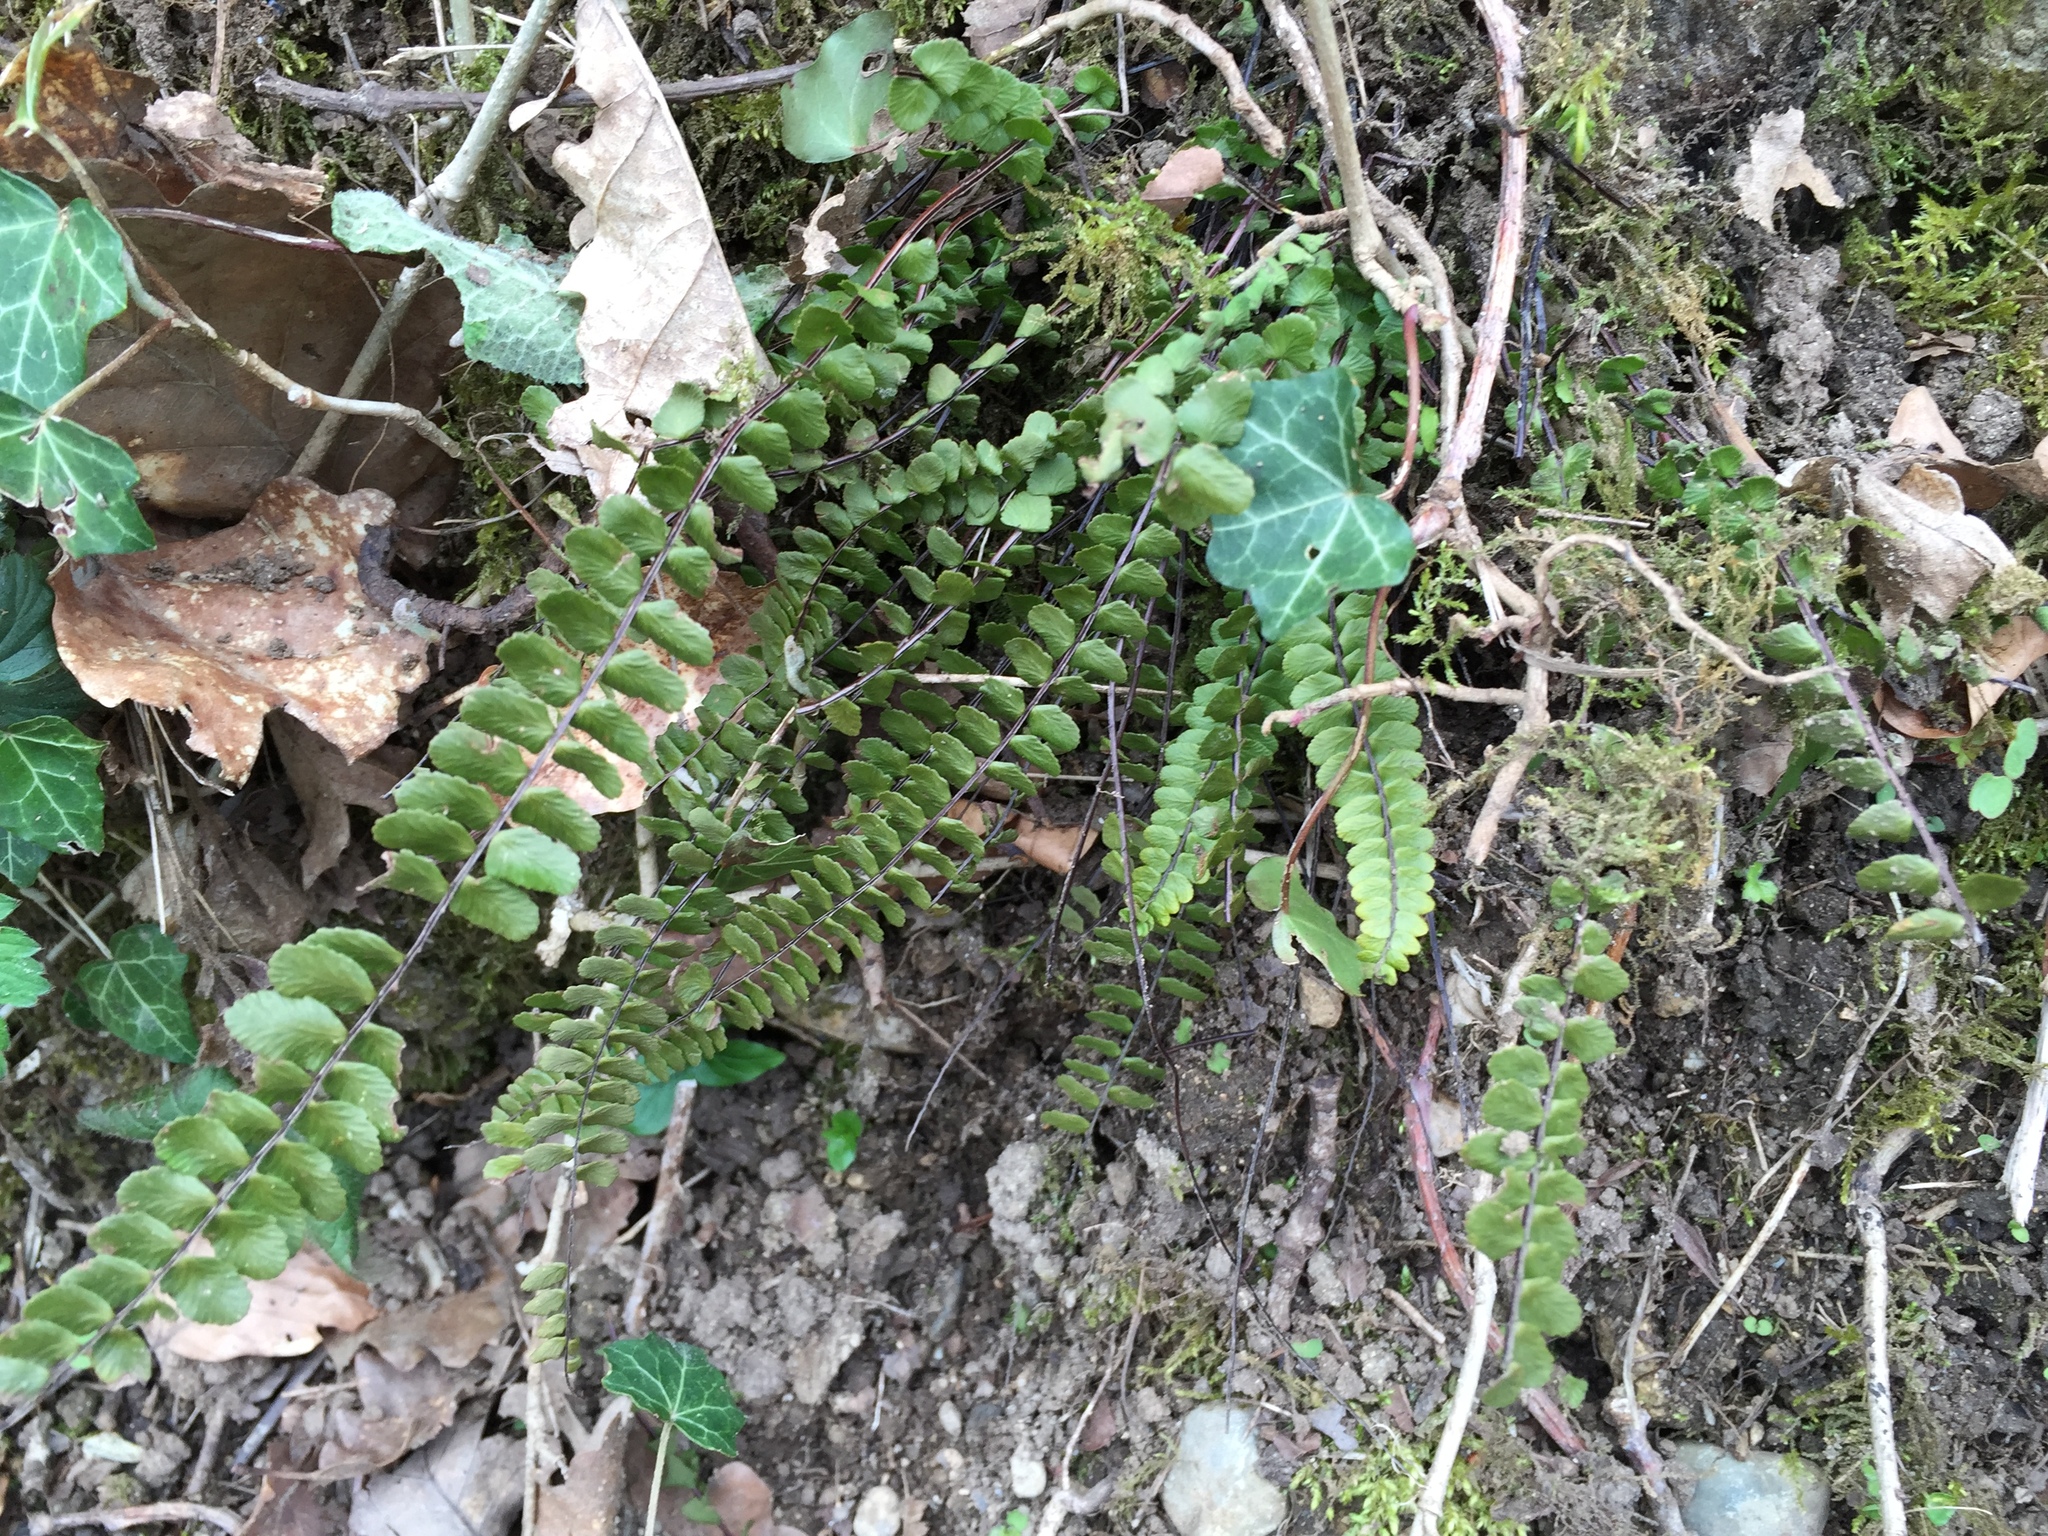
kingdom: Plantae
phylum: Tracheophyta
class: Polypodiopsida
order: Polypodiales
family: Aspleniaceae
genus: Asplenium
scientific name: Asplenium trichomanes
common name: Maidenhair spleenwort
